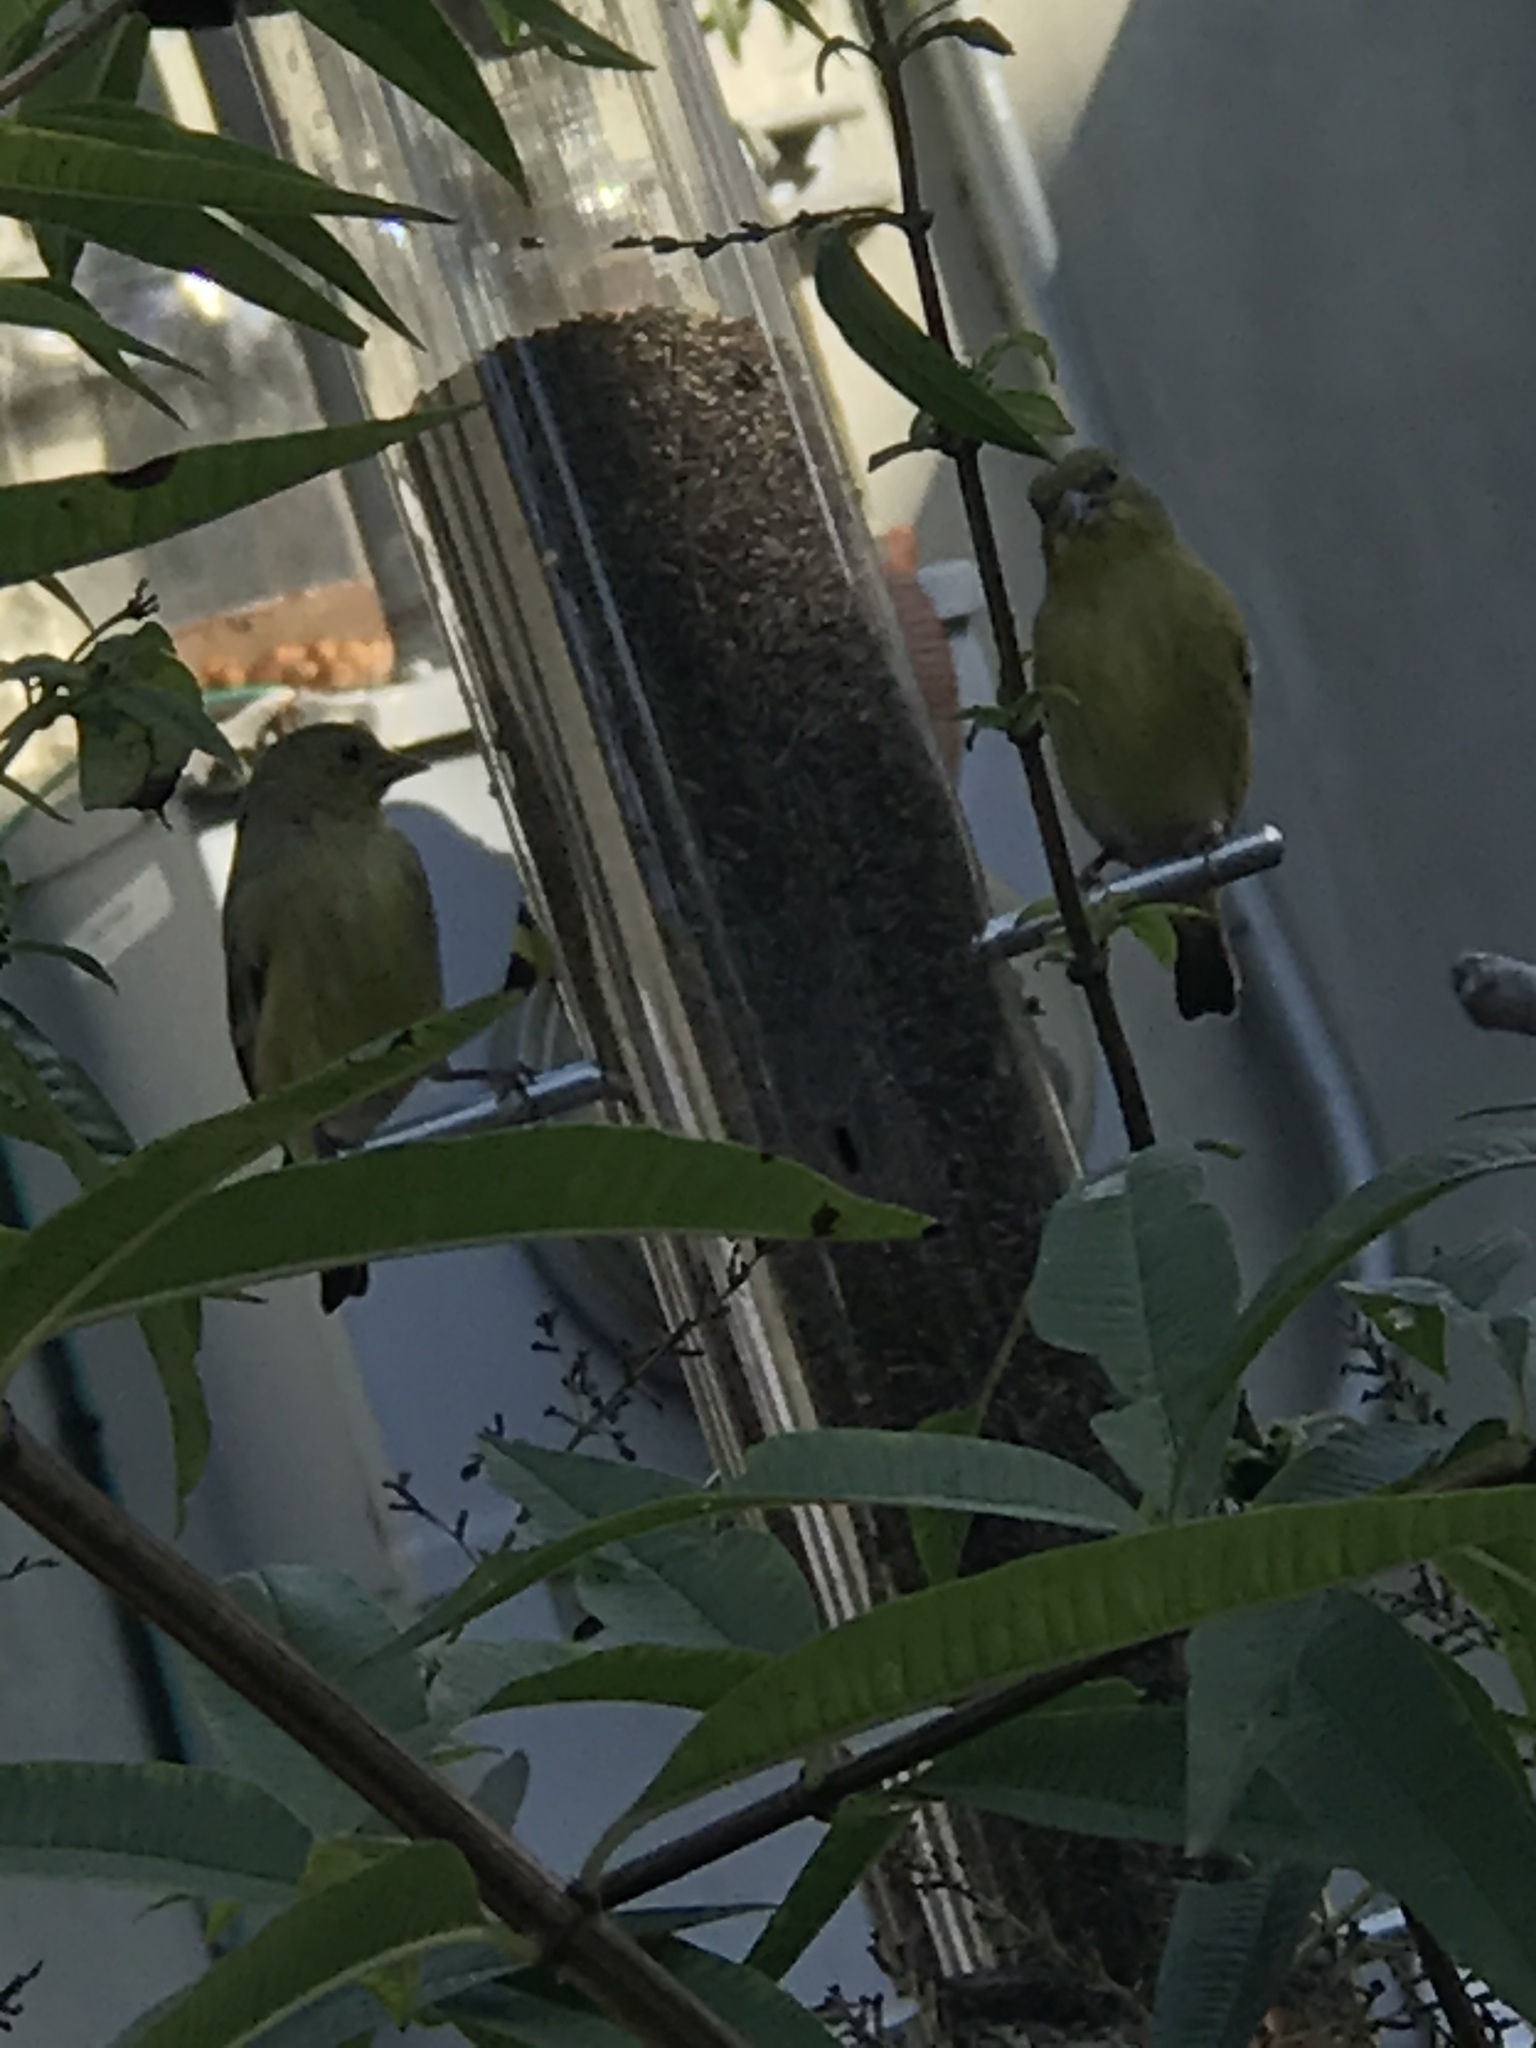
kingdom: Animalia
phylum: Chordata
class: Aves
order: Passeriformes
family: Fringillidae
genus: Spinus
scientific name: Spinus psaltria
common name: Lesser goldfinch
